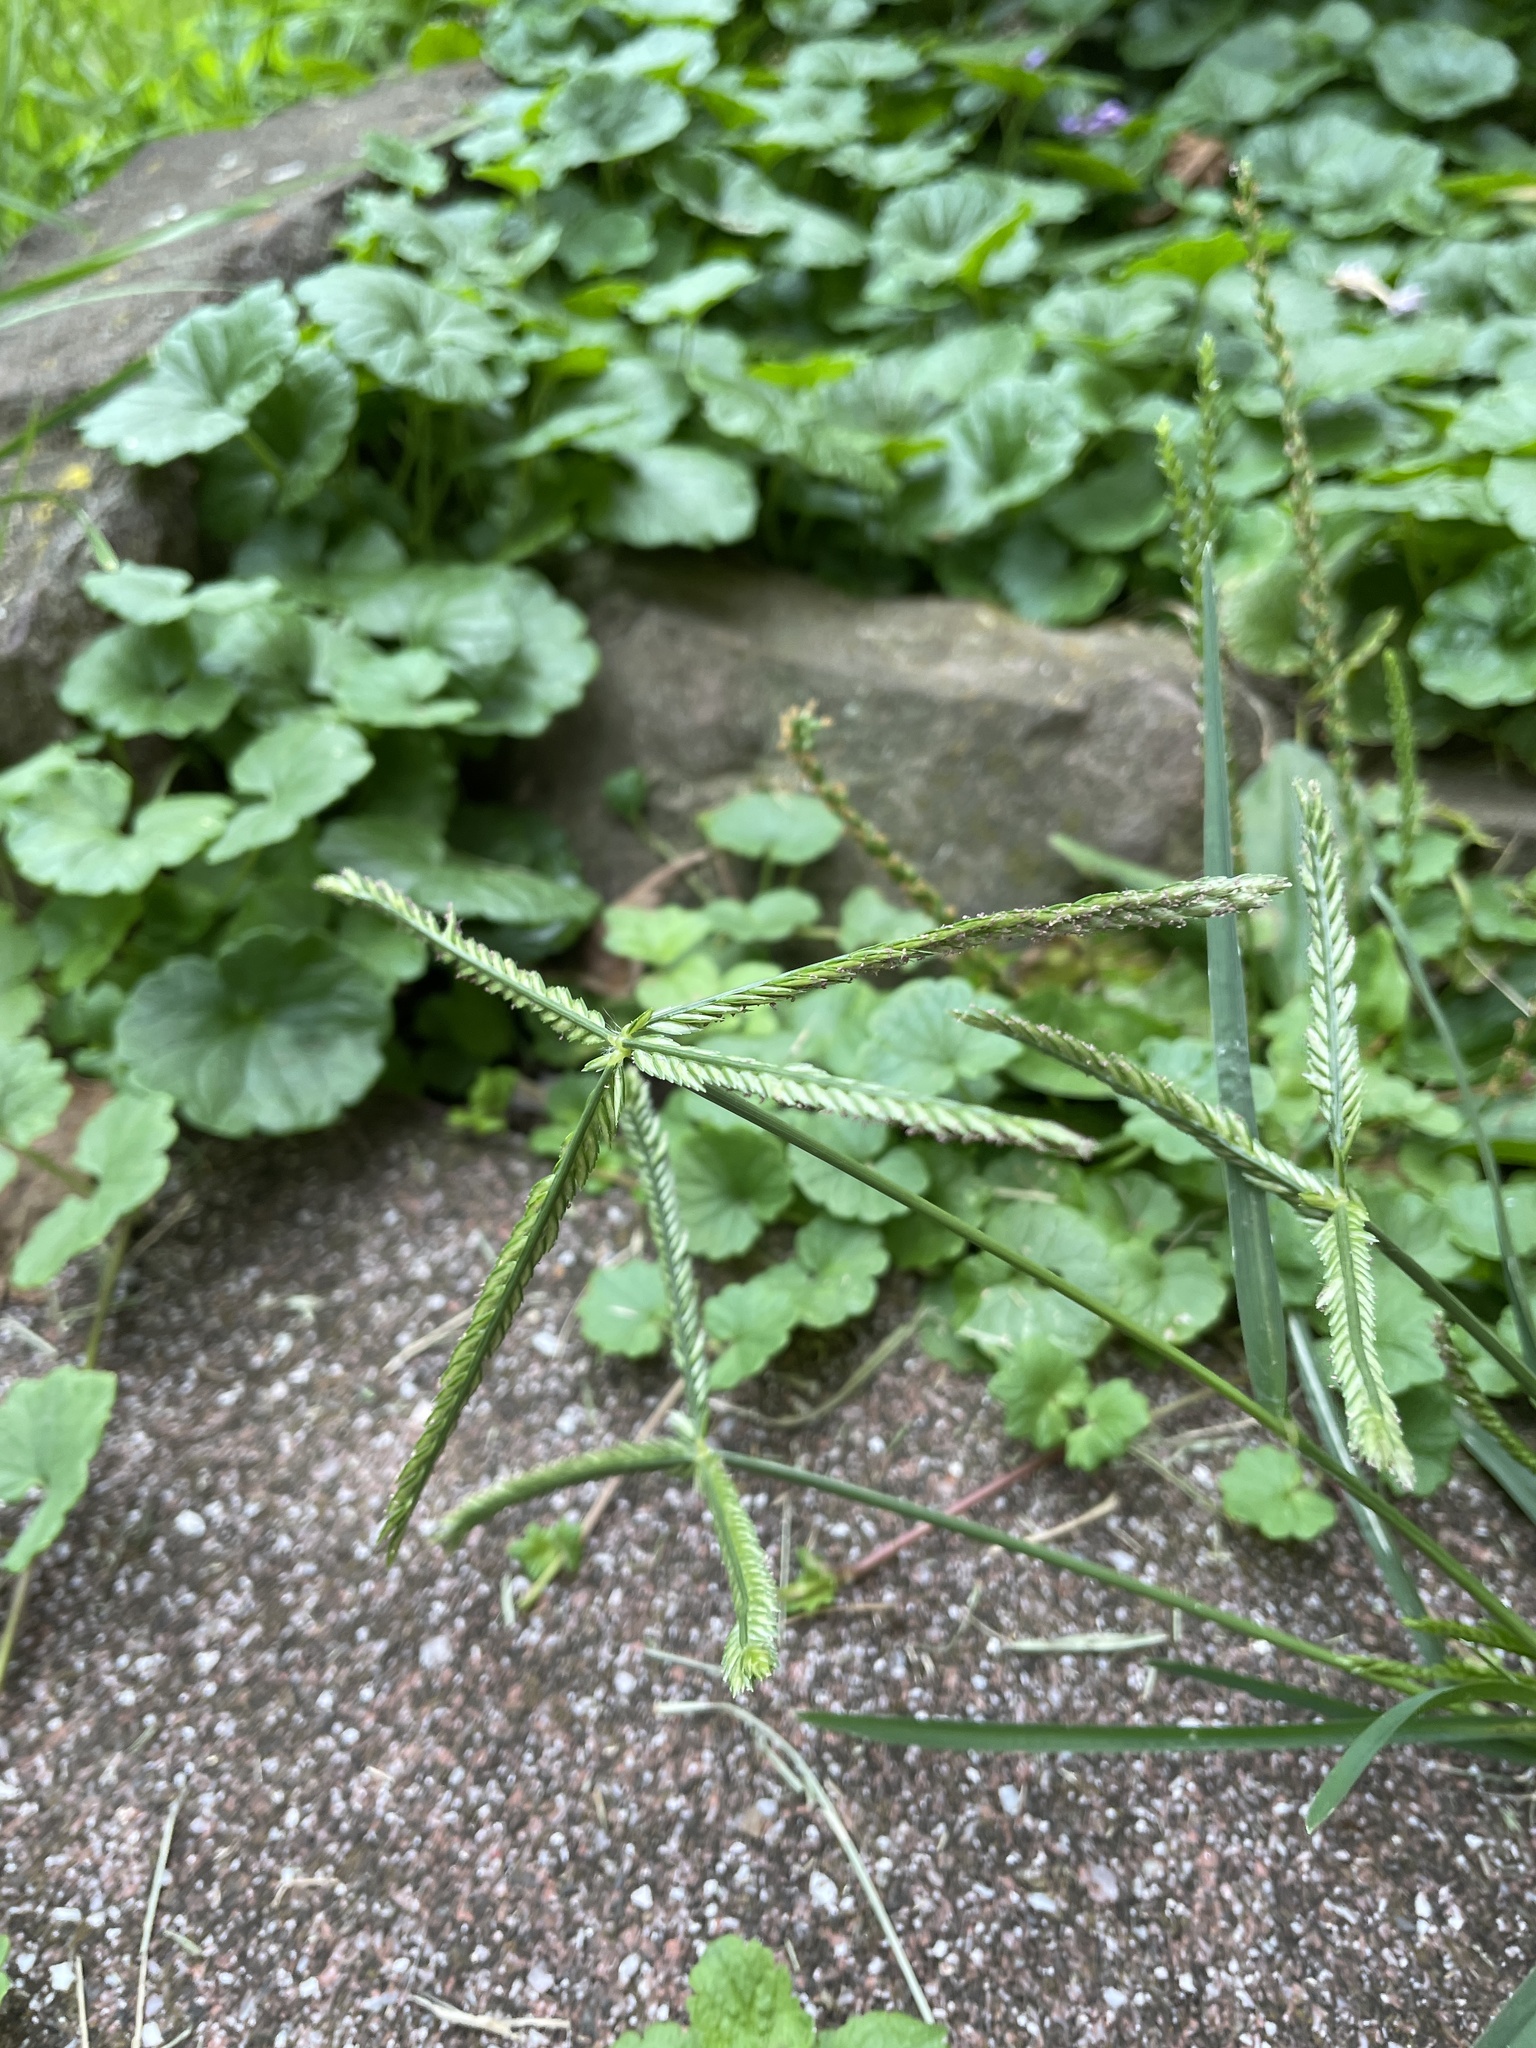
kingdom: Plantae
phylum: Tracheophyta
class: Liliopsida
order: Poales
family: Poaceae
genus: Eleusine
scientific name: Eleusine indica
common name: Yard-grass
